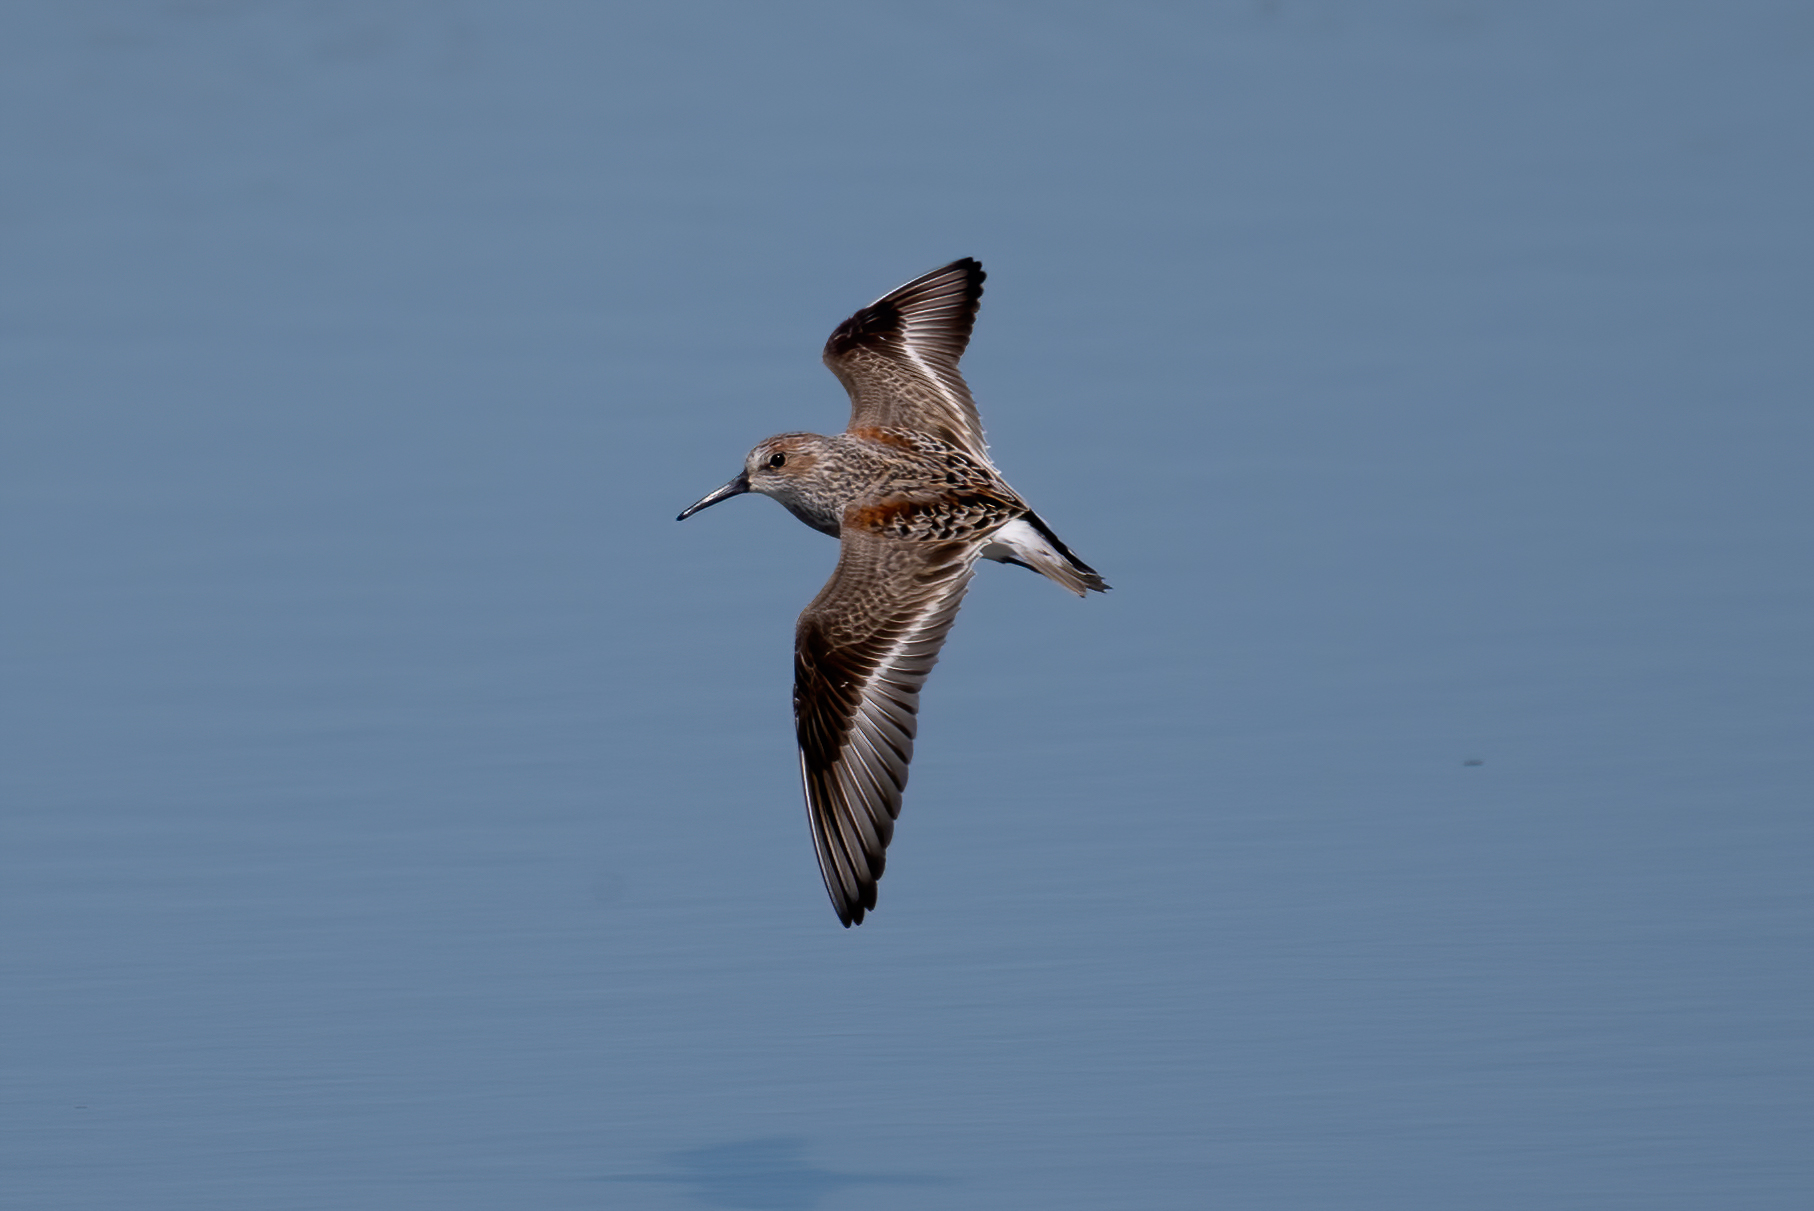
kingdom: Animalia
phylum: Chordata
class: Aves
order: Charadriiformes
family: Scolopacidae
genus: Calidris
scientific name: Calidris mauri
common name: Western sandpiper
